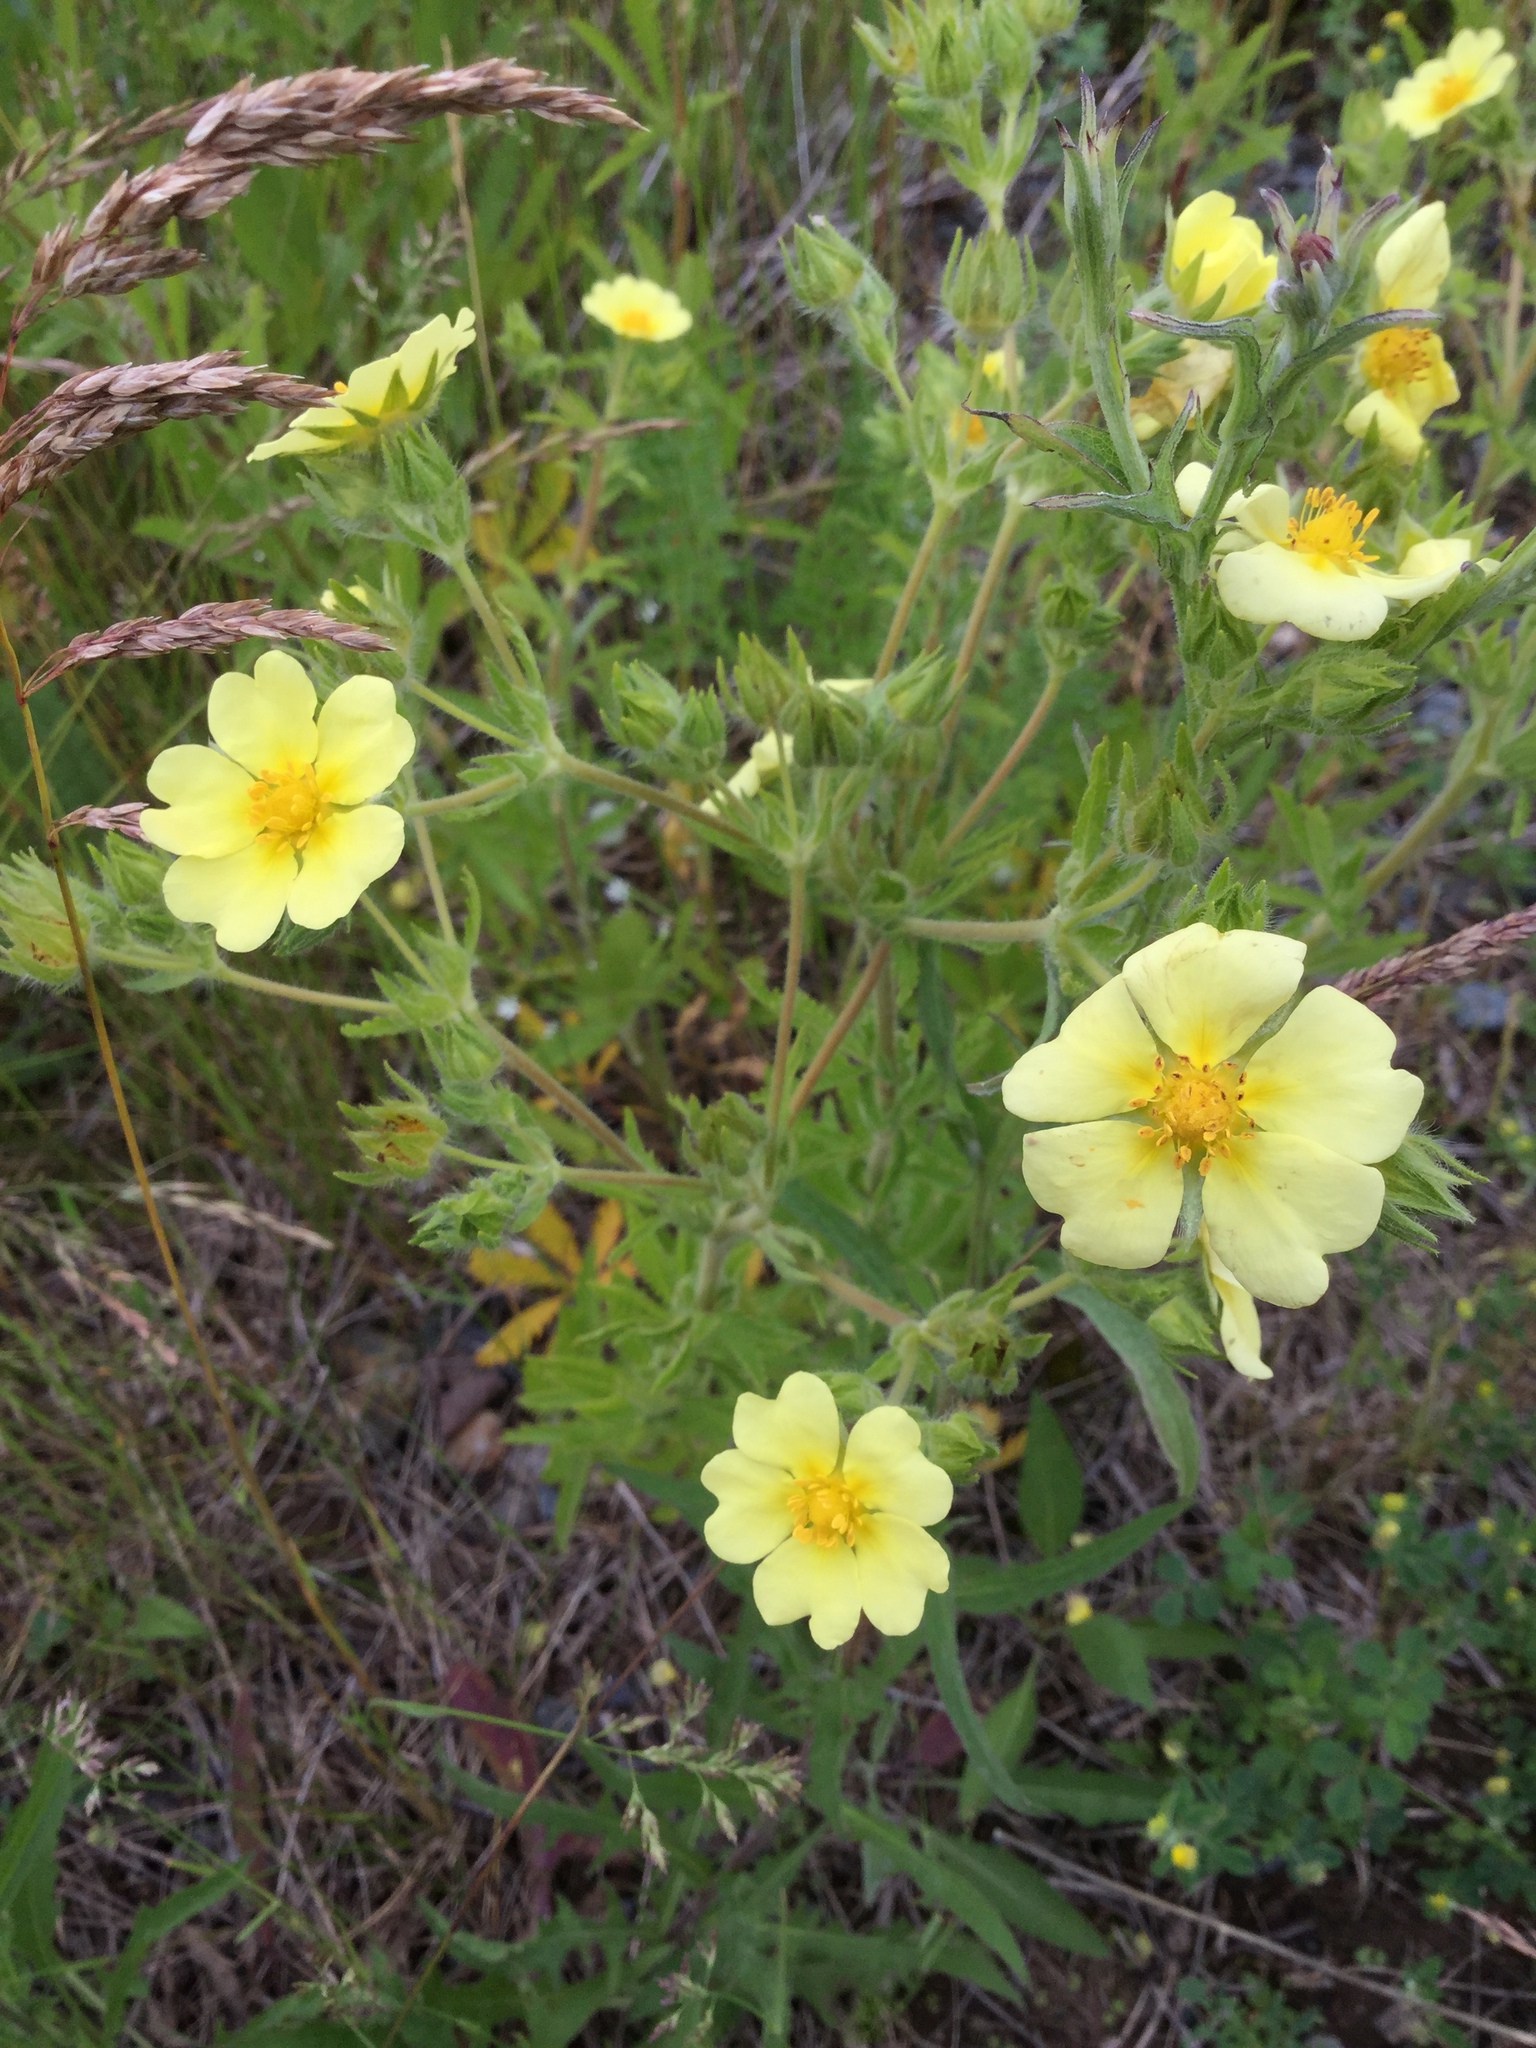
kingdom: Plantae
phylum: Tracheophyta
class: Magnoliopsida
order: Rosales
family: Rosaceae
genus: Potentilla
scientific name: Potentilla recta
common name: Sulphur cinquefoil
